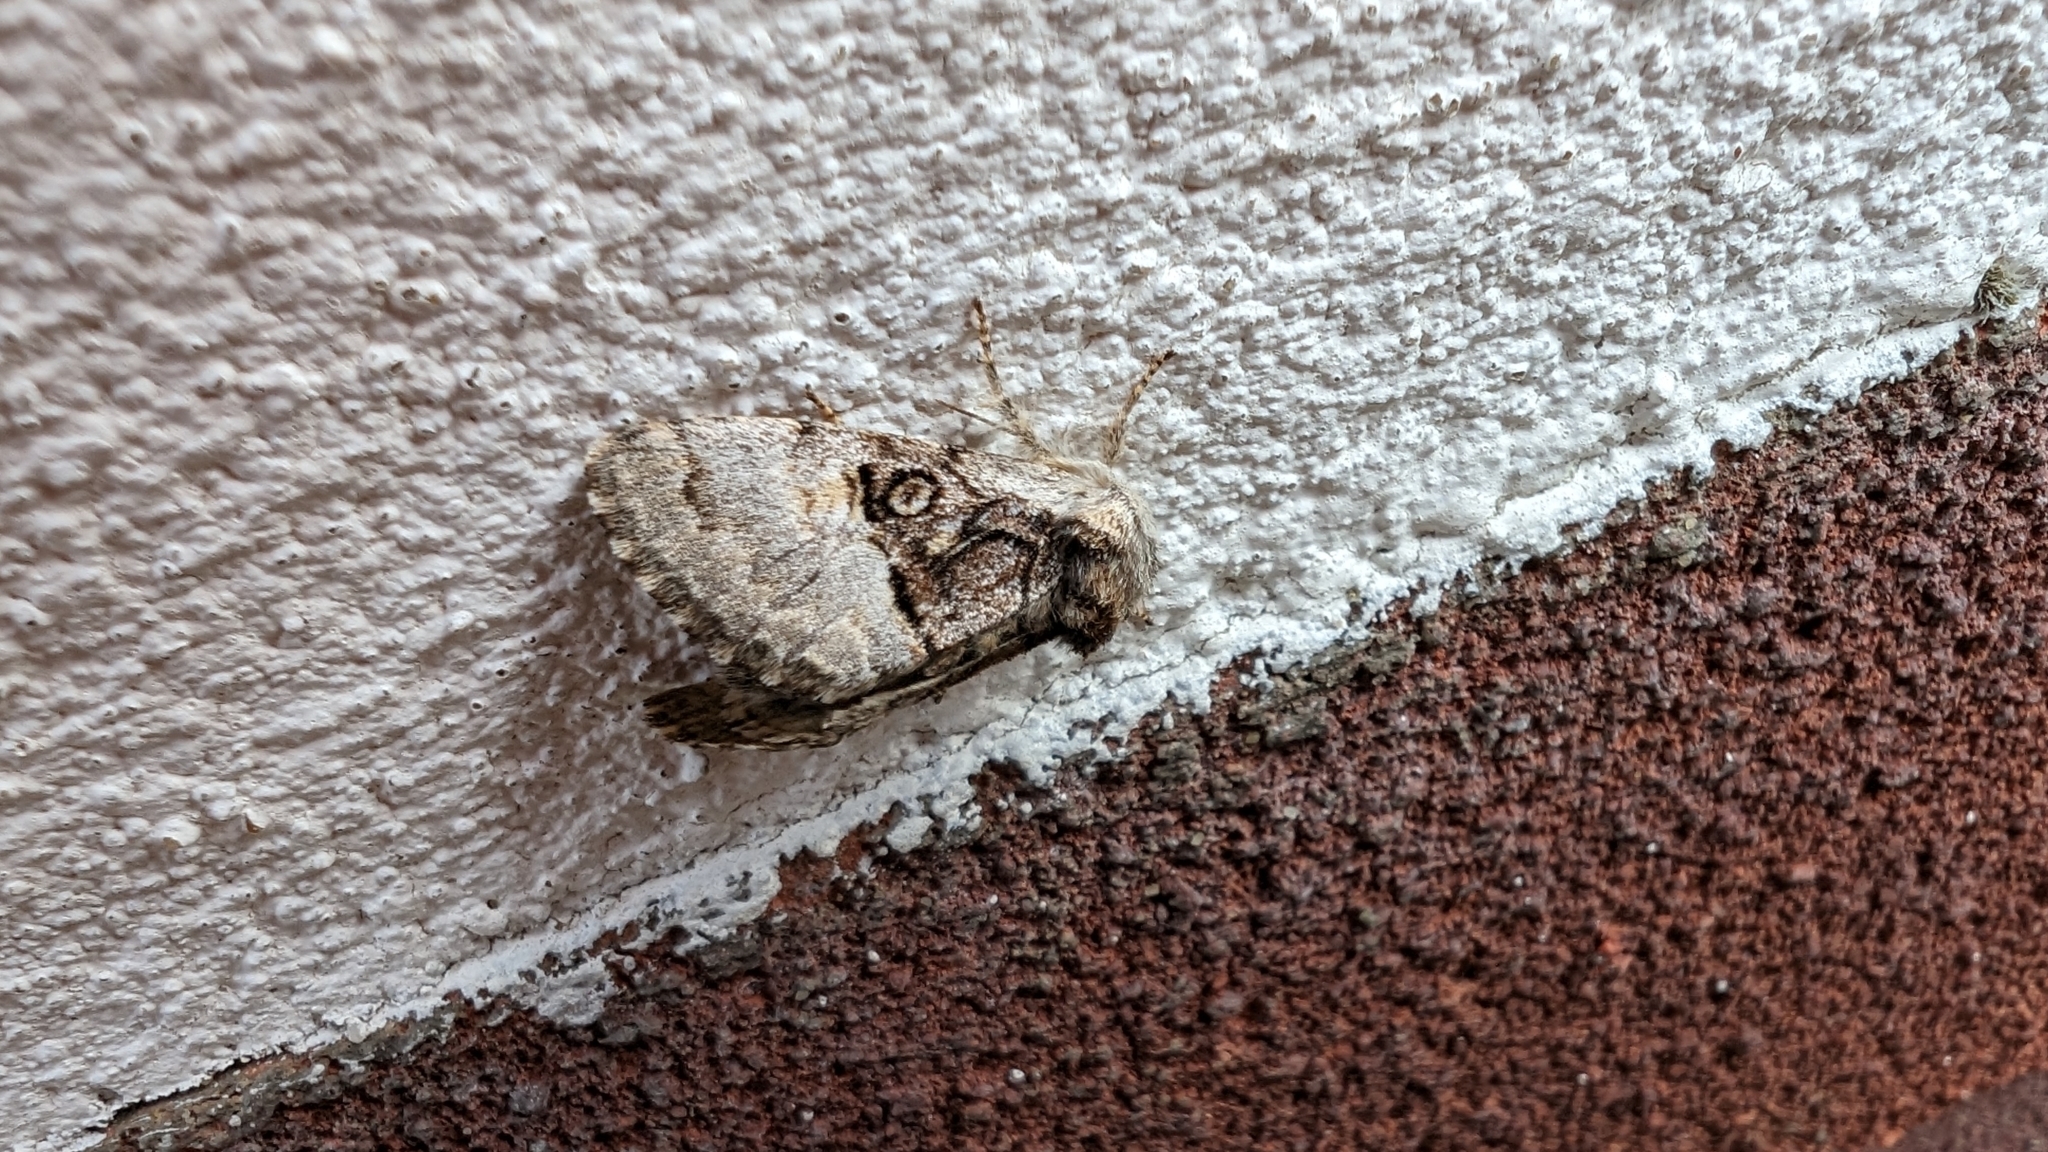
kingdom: Animalia
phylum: Arthropoda
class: Insecta
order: Lepidoptera
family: Noctuidae
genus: Colocasia
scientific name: Colocasia coryli
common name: Nut-tree tussock
